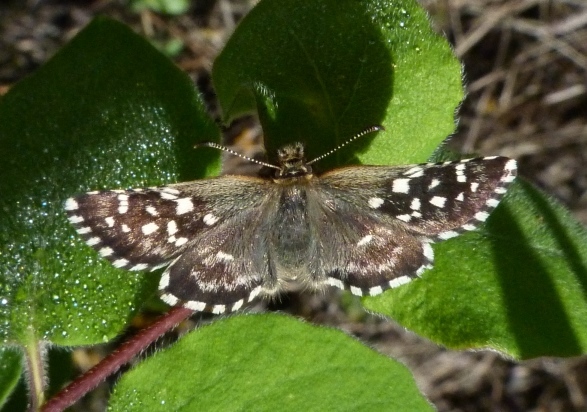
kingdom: Animalia
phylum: Arthropoda
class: Insecta
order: Lepidoptera
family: Hesperiidae
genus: Pyrgus
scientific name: Pyrgus malvoides
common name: Southern grizzled skipper
